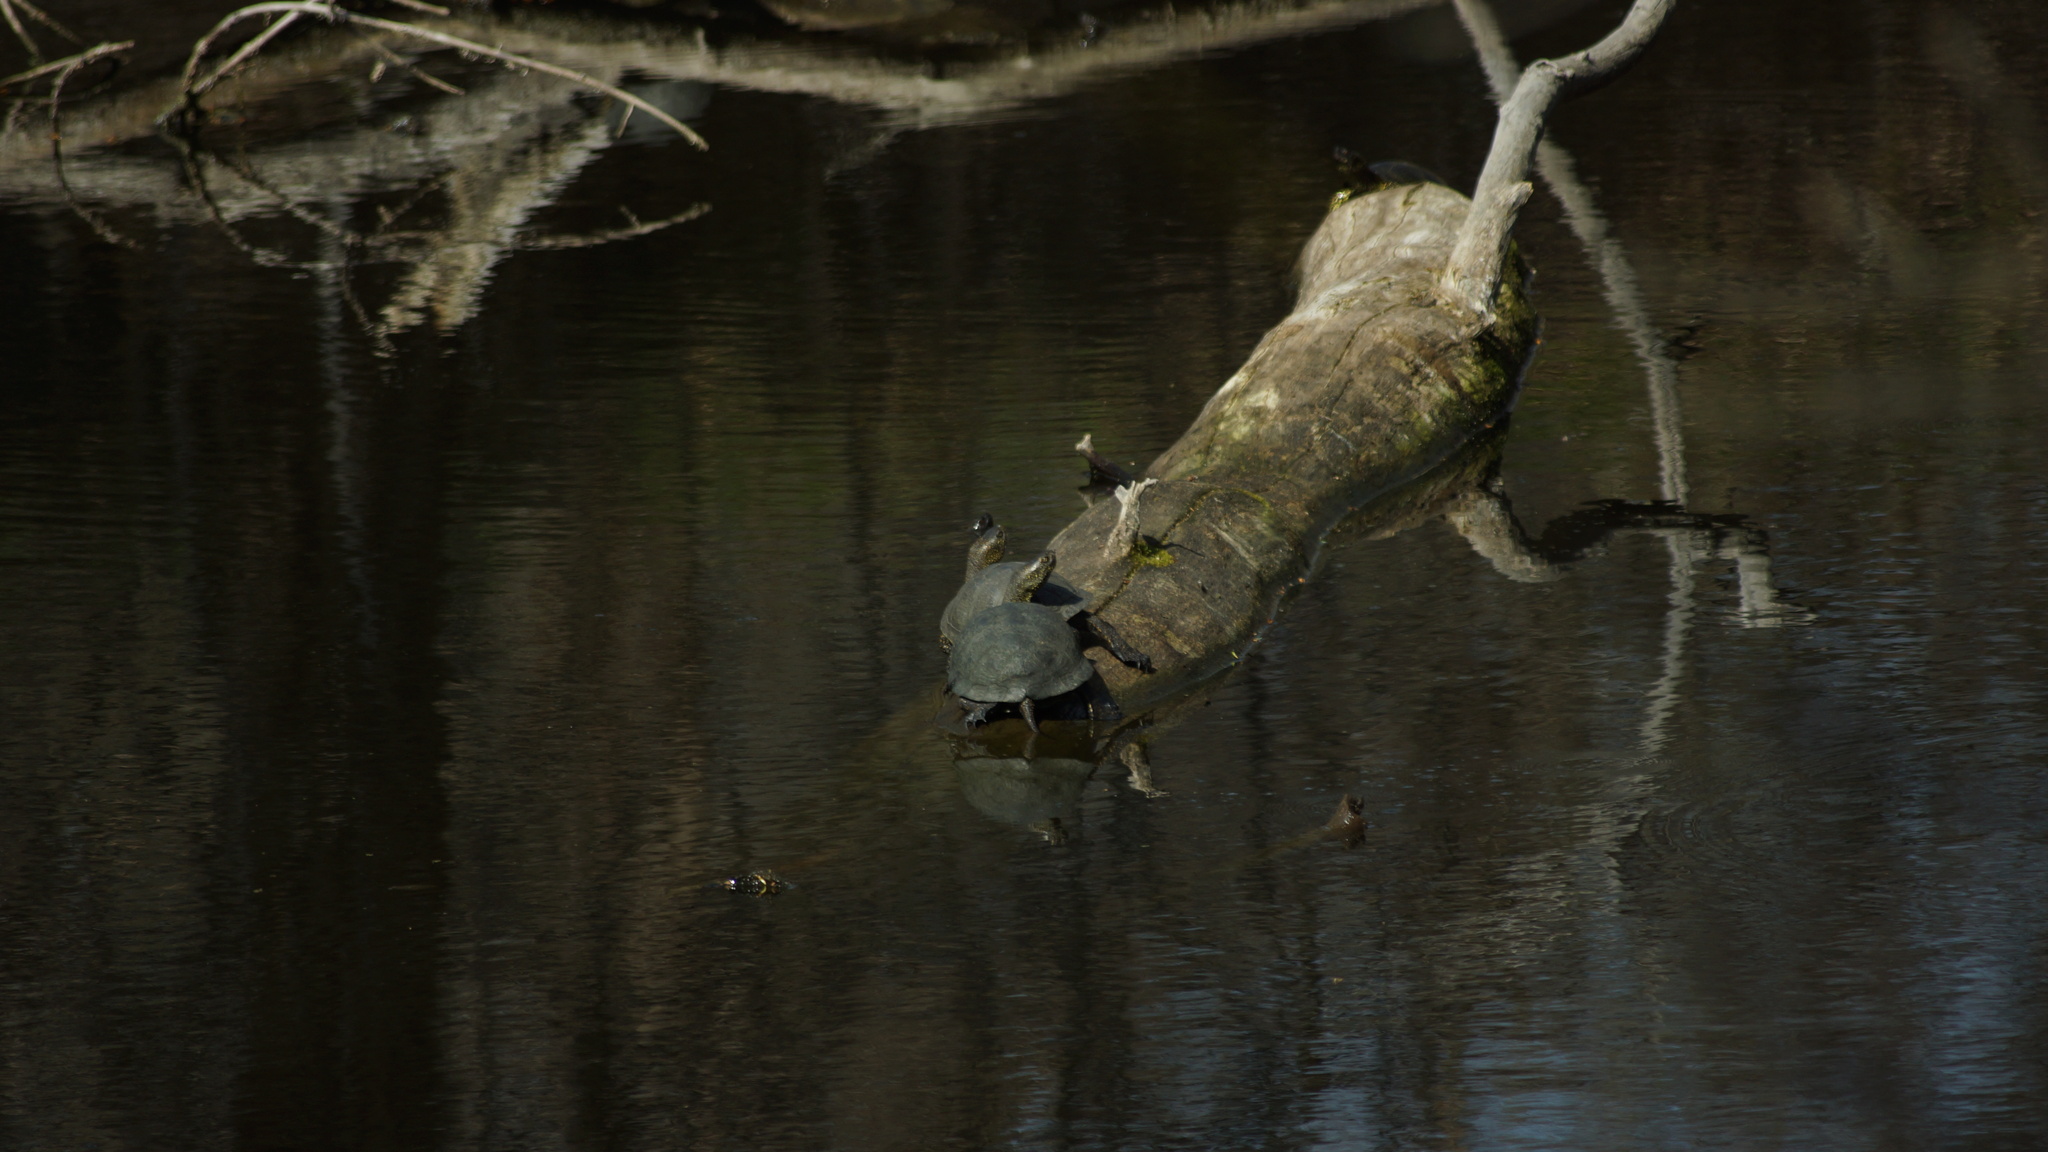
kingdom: Animalia
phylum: Chordata
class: Testudines
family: Emydidae
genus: Emys
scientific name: Emys orbicularis
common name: European pond turtle
